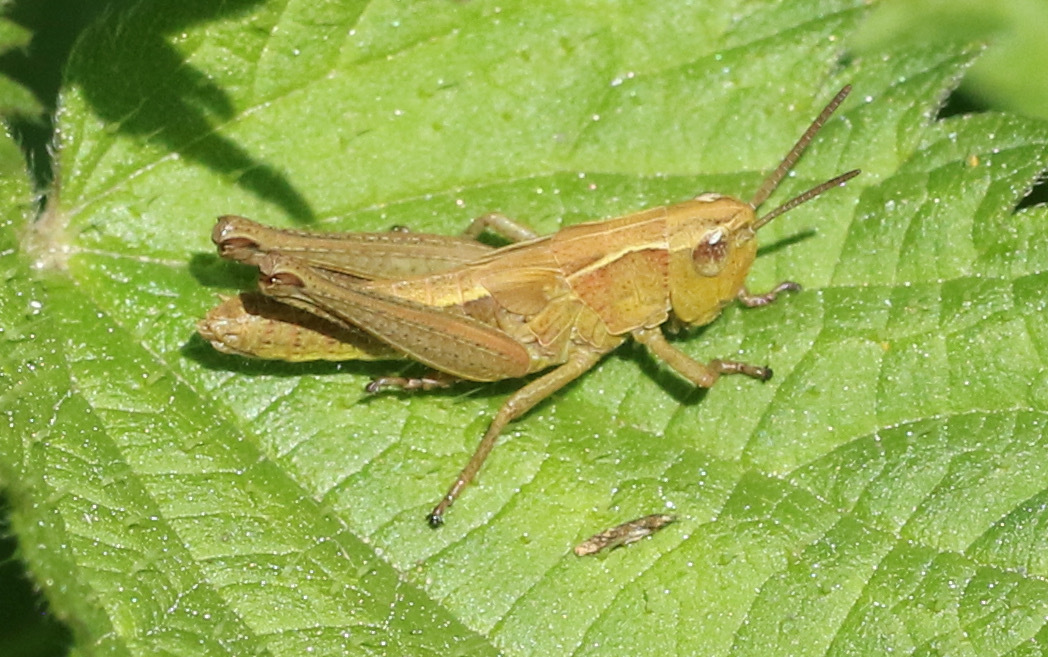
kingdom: Animalia
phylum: Arthropoda
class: Insecta
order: Orthoptera
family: Acrididae
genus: Pseudochorthippus
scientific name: Pseudochorthippus parallelus
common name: Meadow grasshopper
